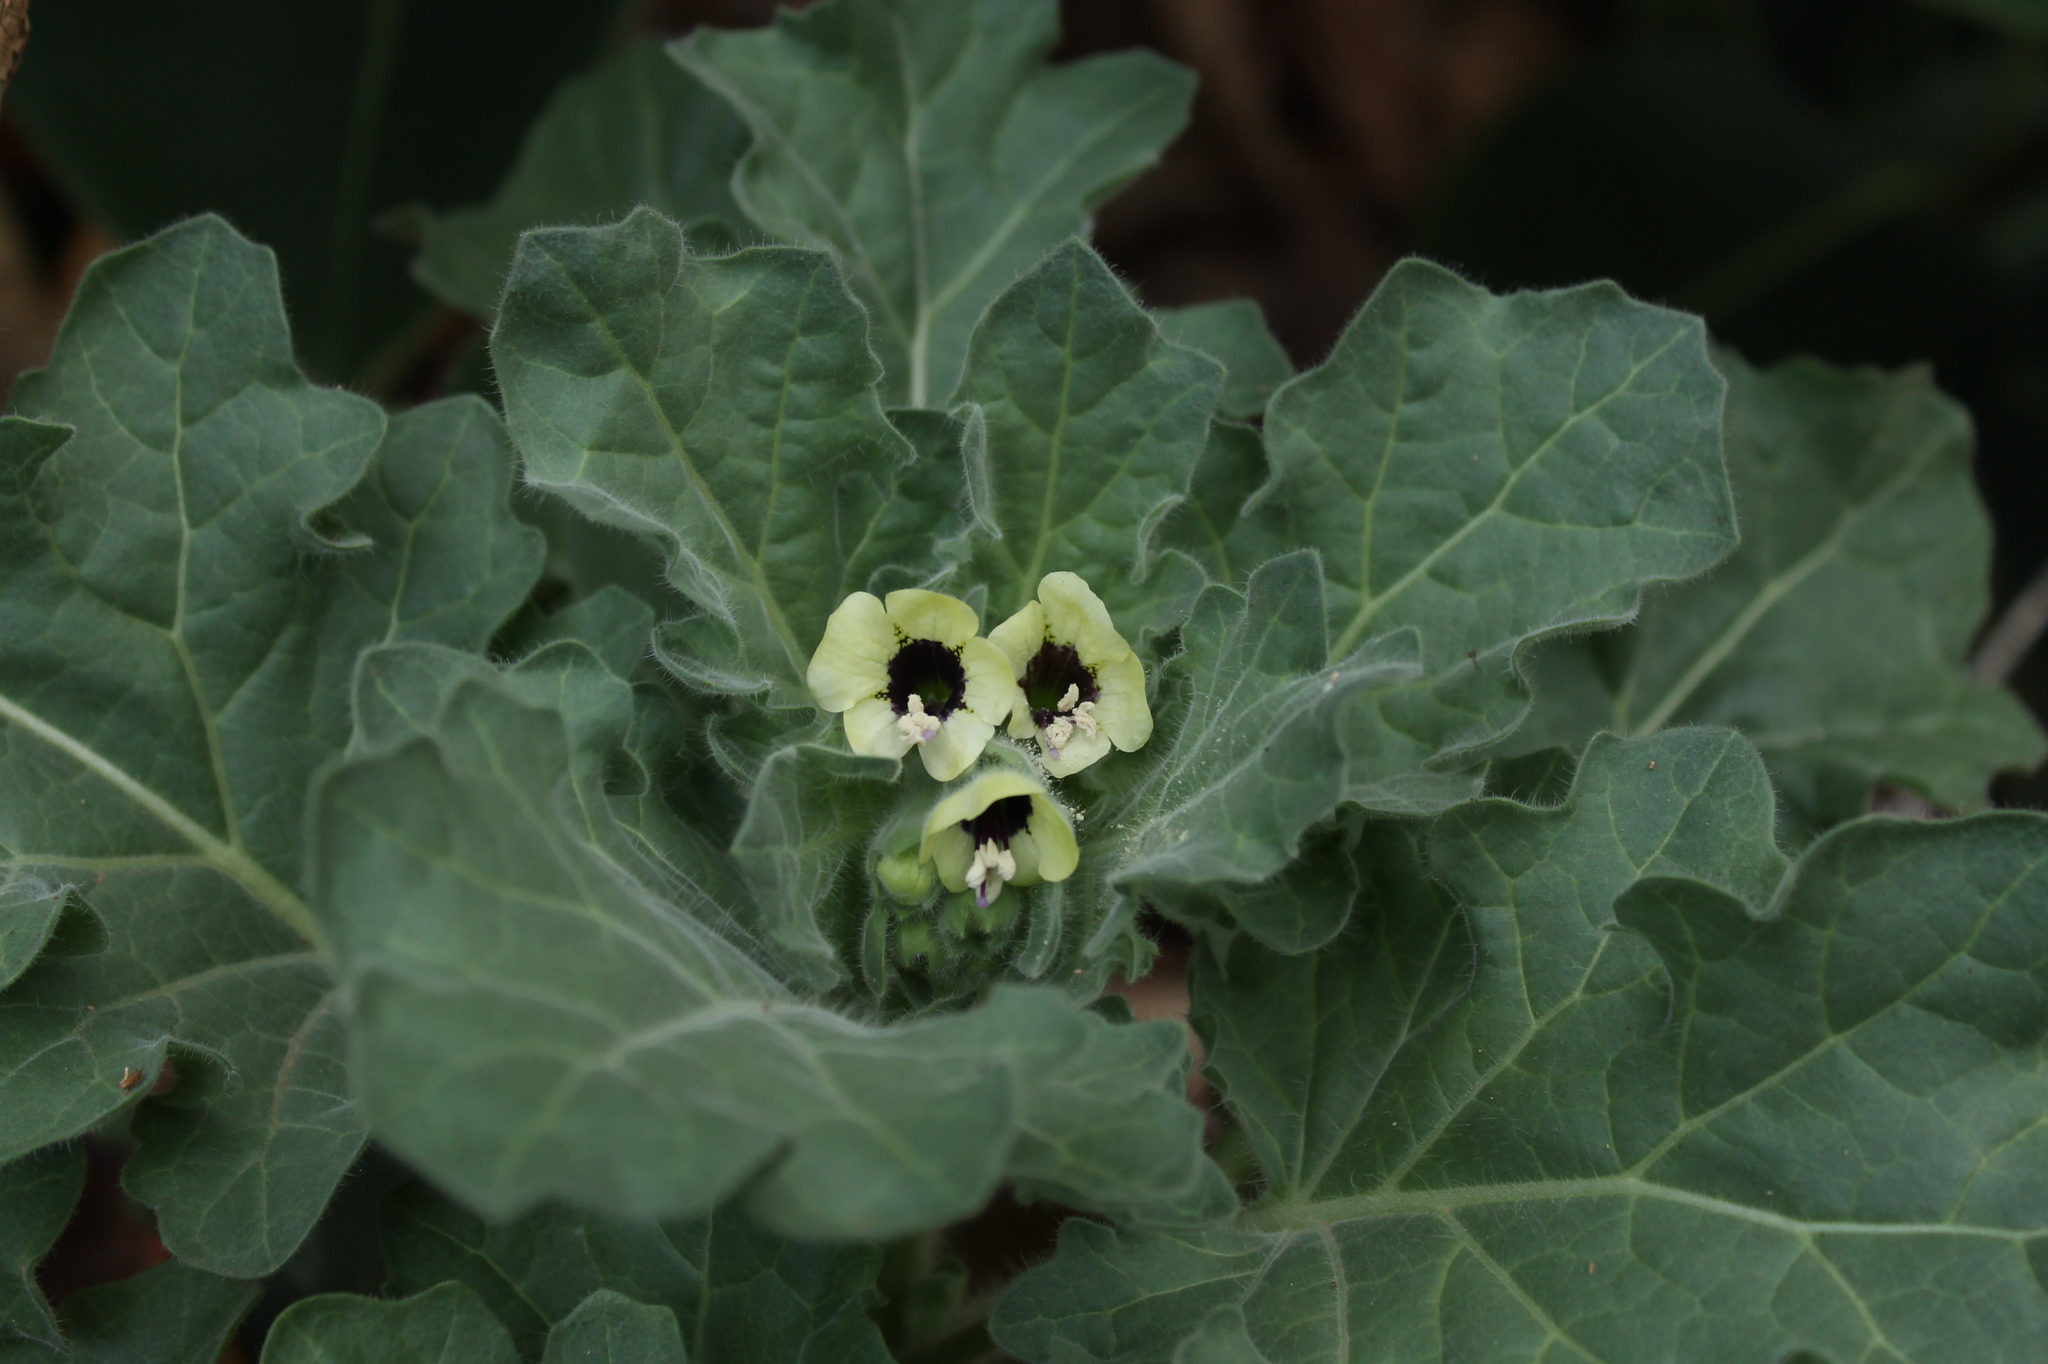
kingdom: Plantae
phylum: Tracheophyta
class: Magnoliopsida
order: Solanales
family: Solanaceae
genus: Hyoscyamus
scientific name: Hyoscyamus albus
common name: White henbane
